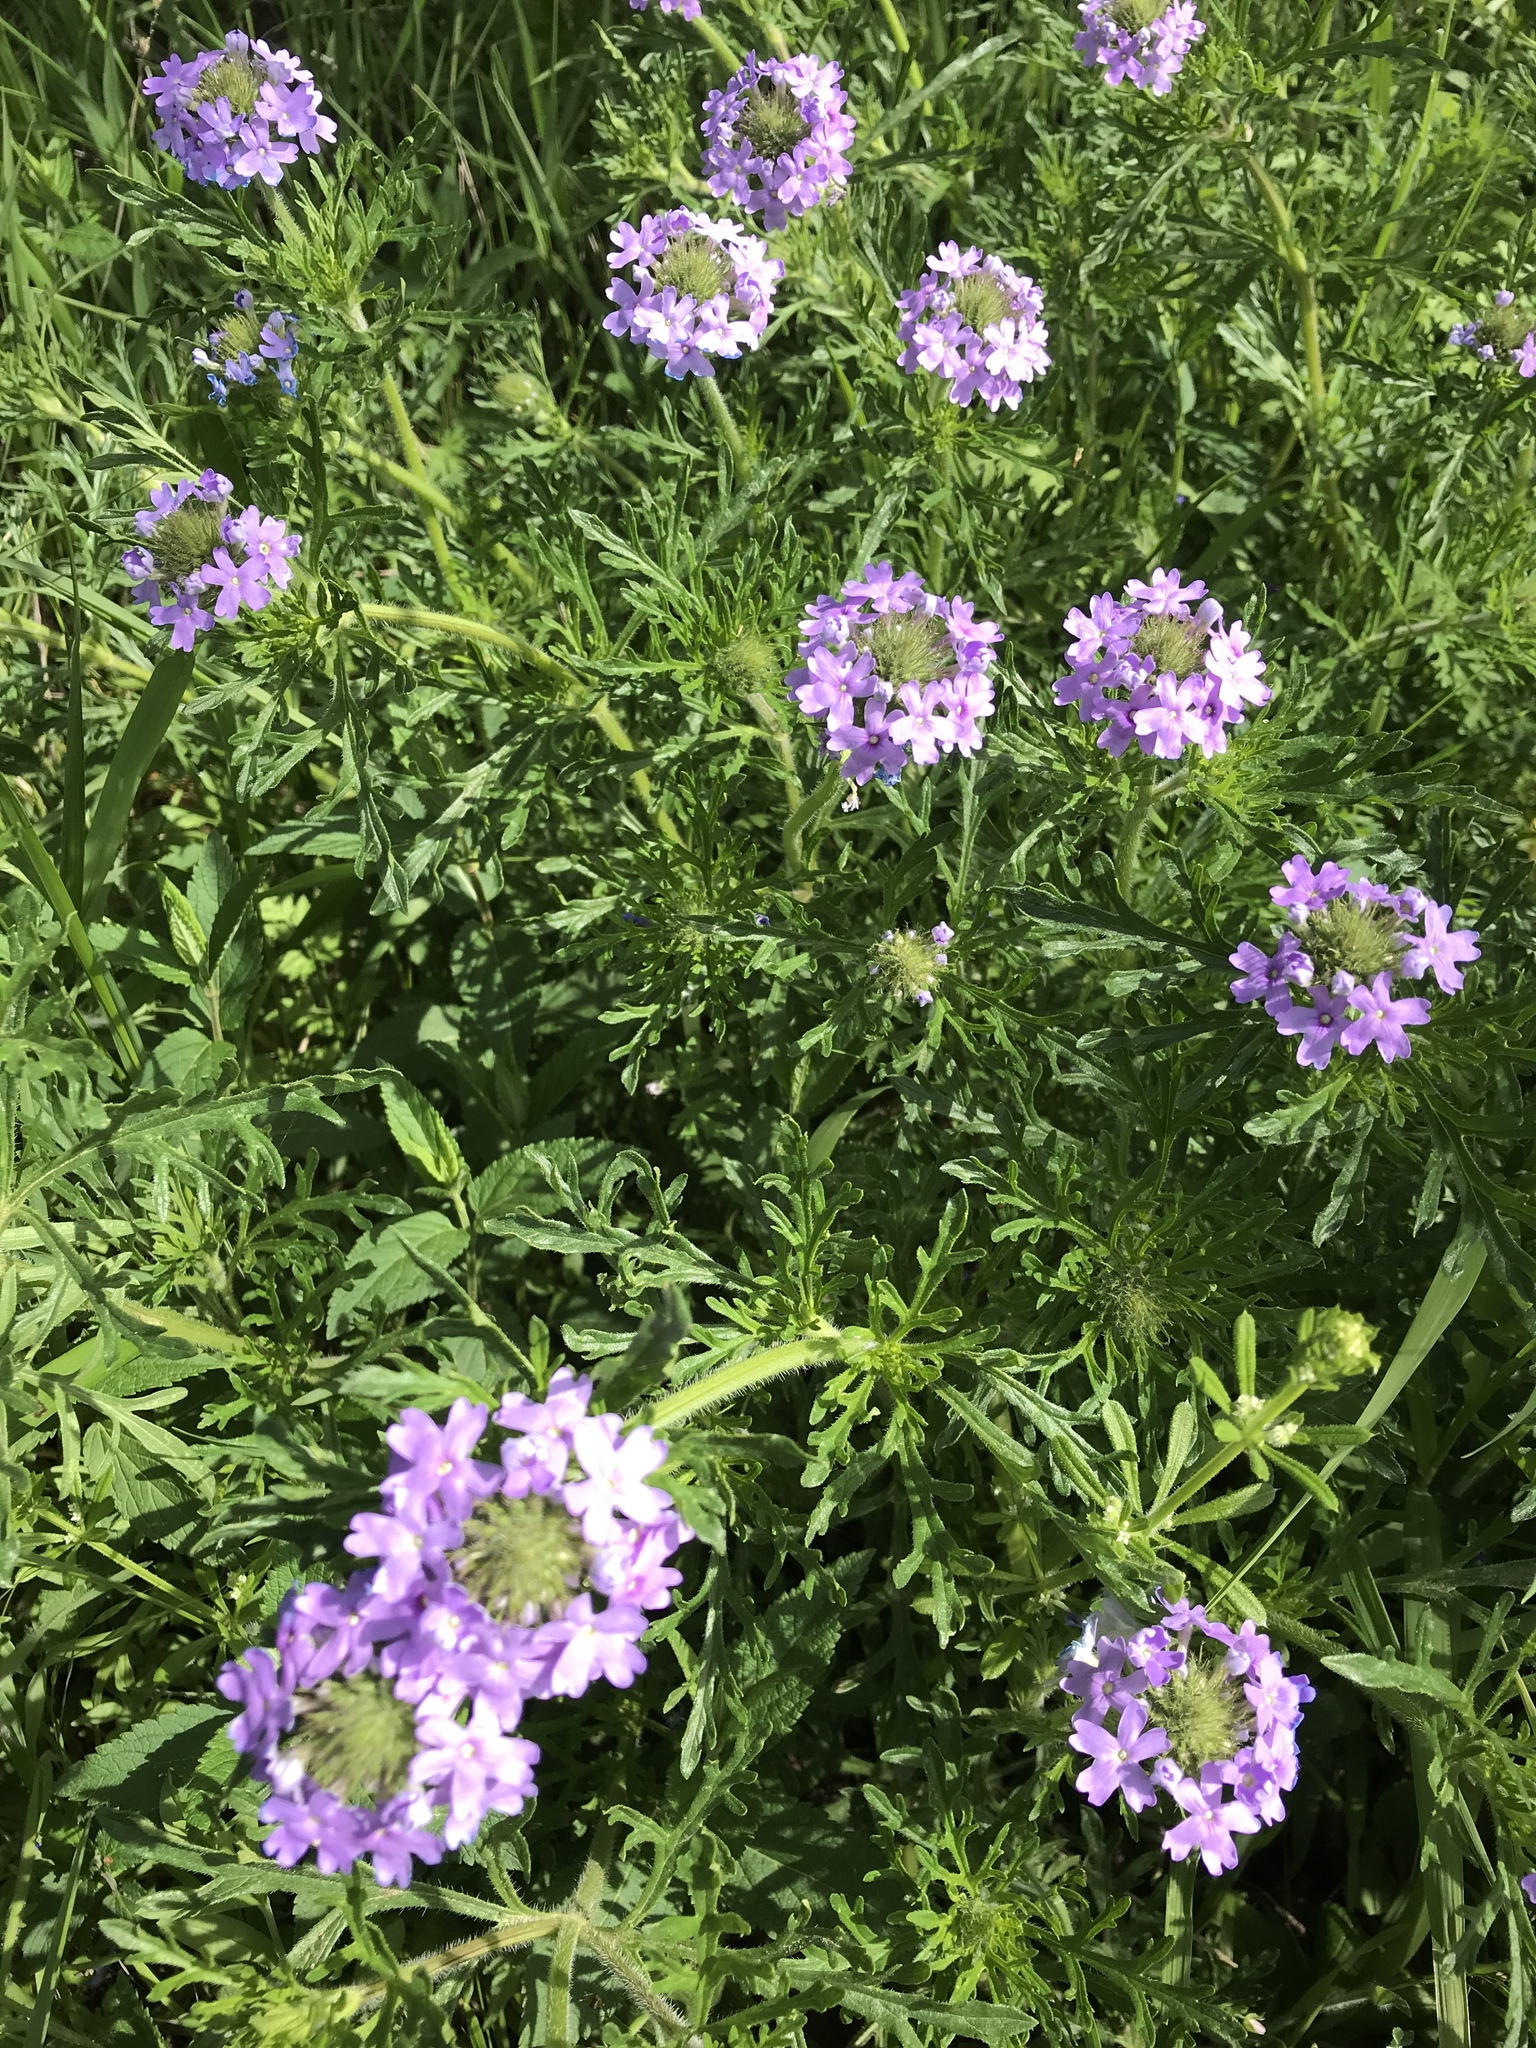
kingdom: Plantae
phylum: Tracheophyta
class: Magnoliopsida
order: Lamiales
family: Verbenaceae
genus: Verbena
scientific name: Verbena bipinnatifida
